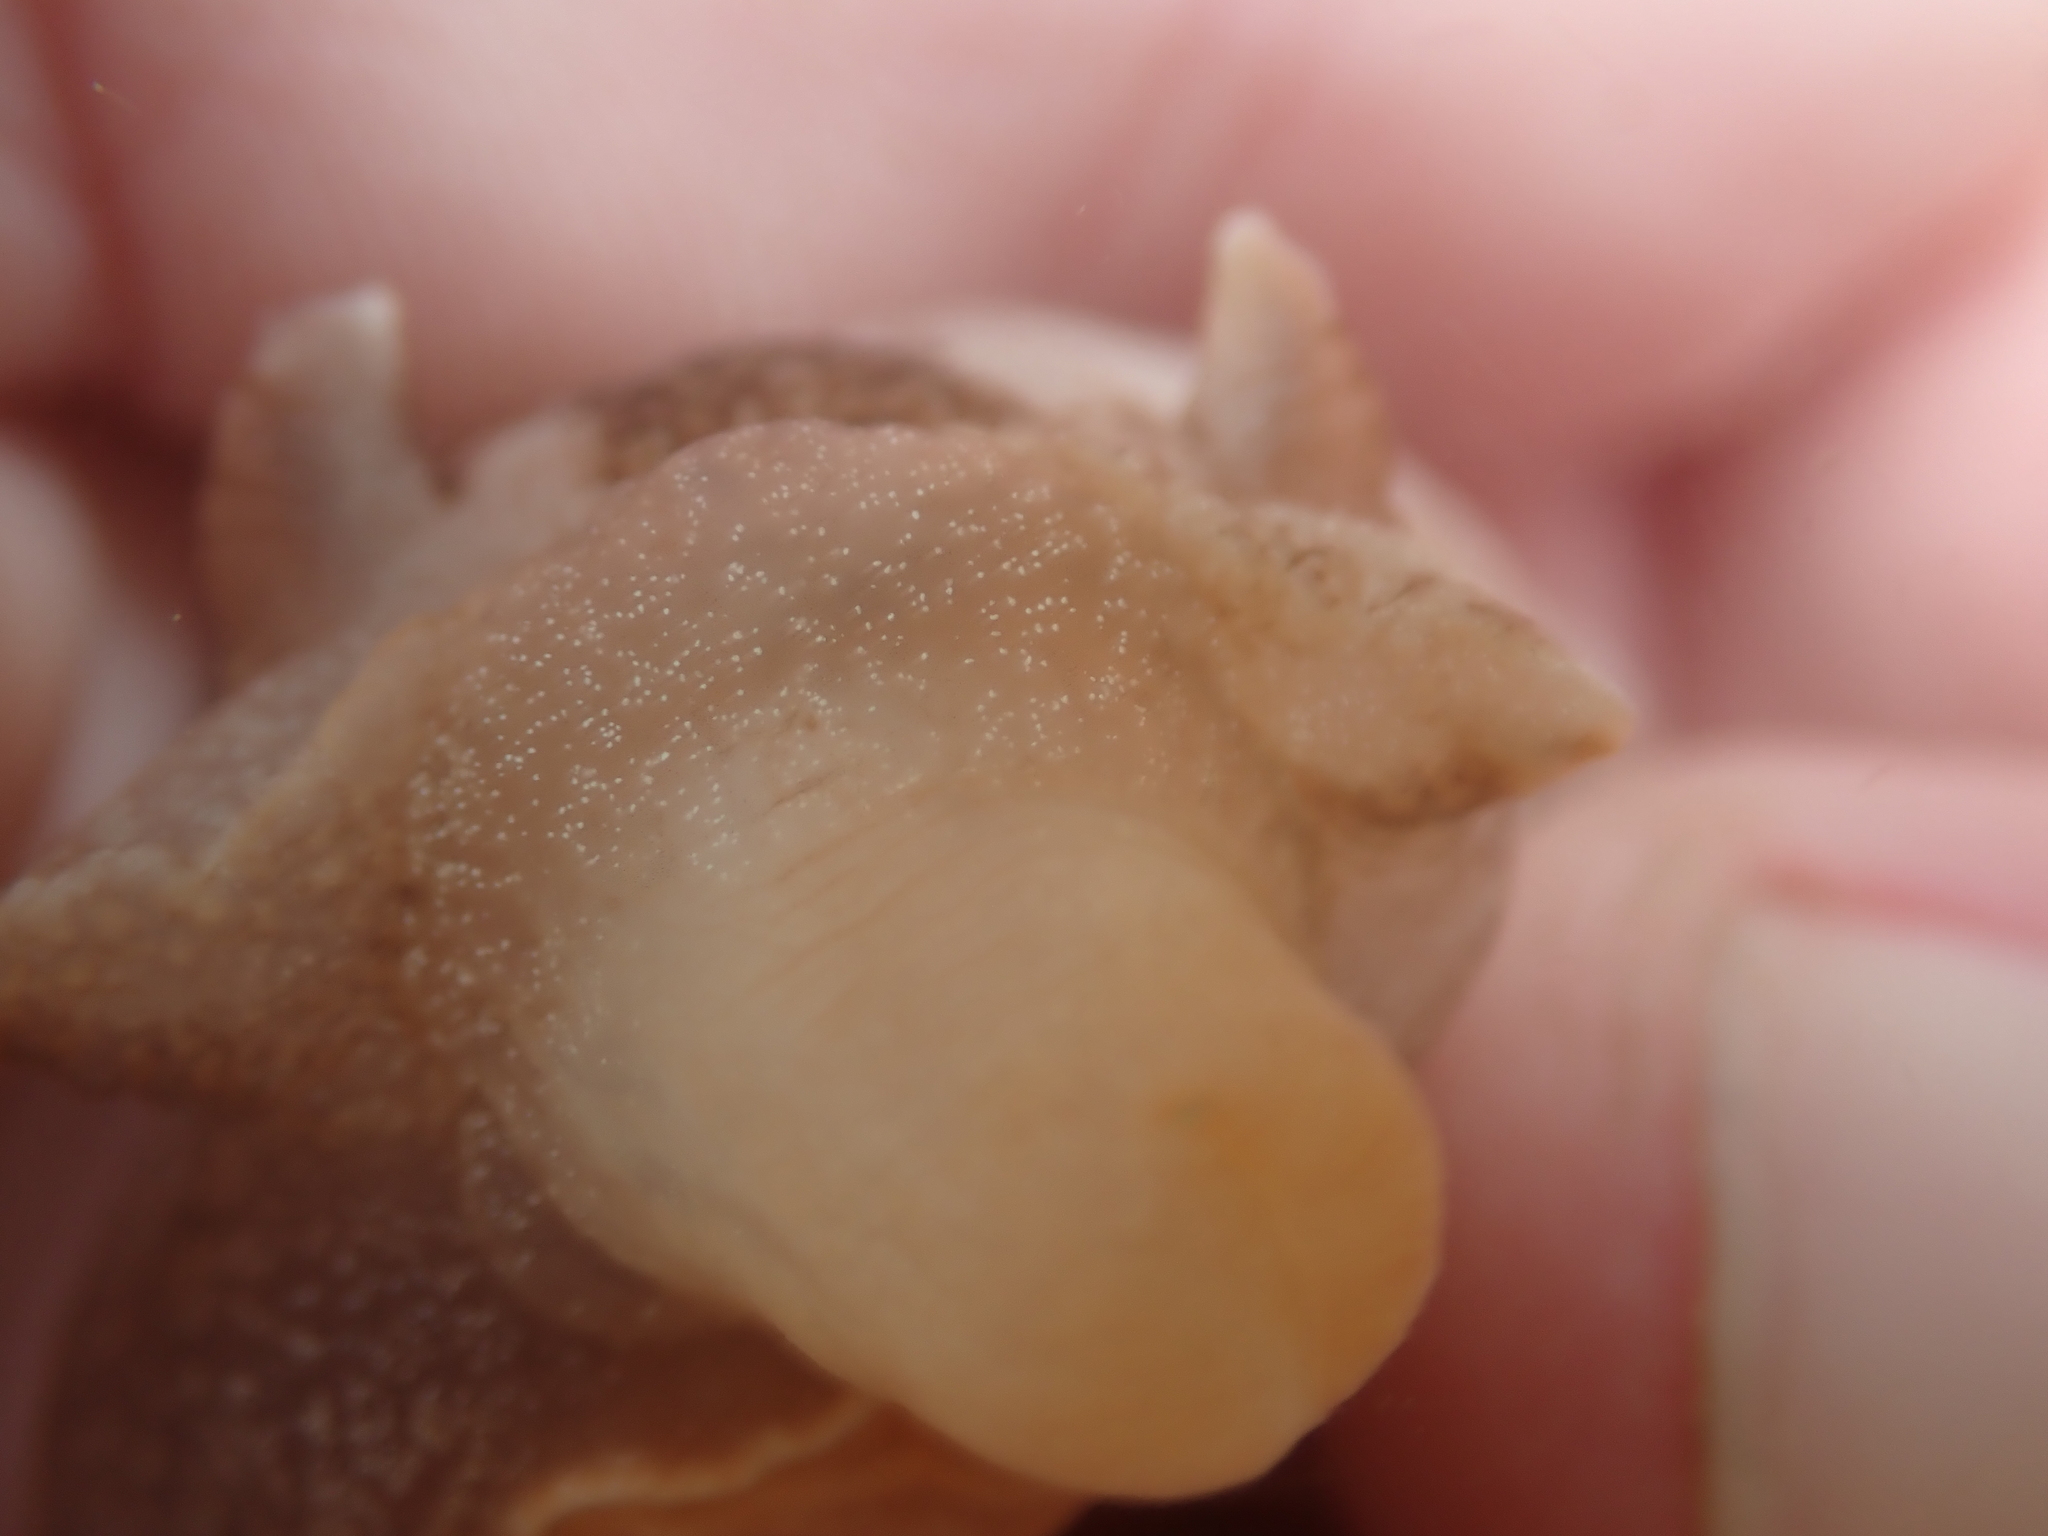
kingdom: Animalia
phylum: Mollusca
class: Gastropoda
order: Pleurobranchida
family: Pleurobranchaeidae
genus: Pleurobranchaea
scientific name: Pleurobranchaea maculata
